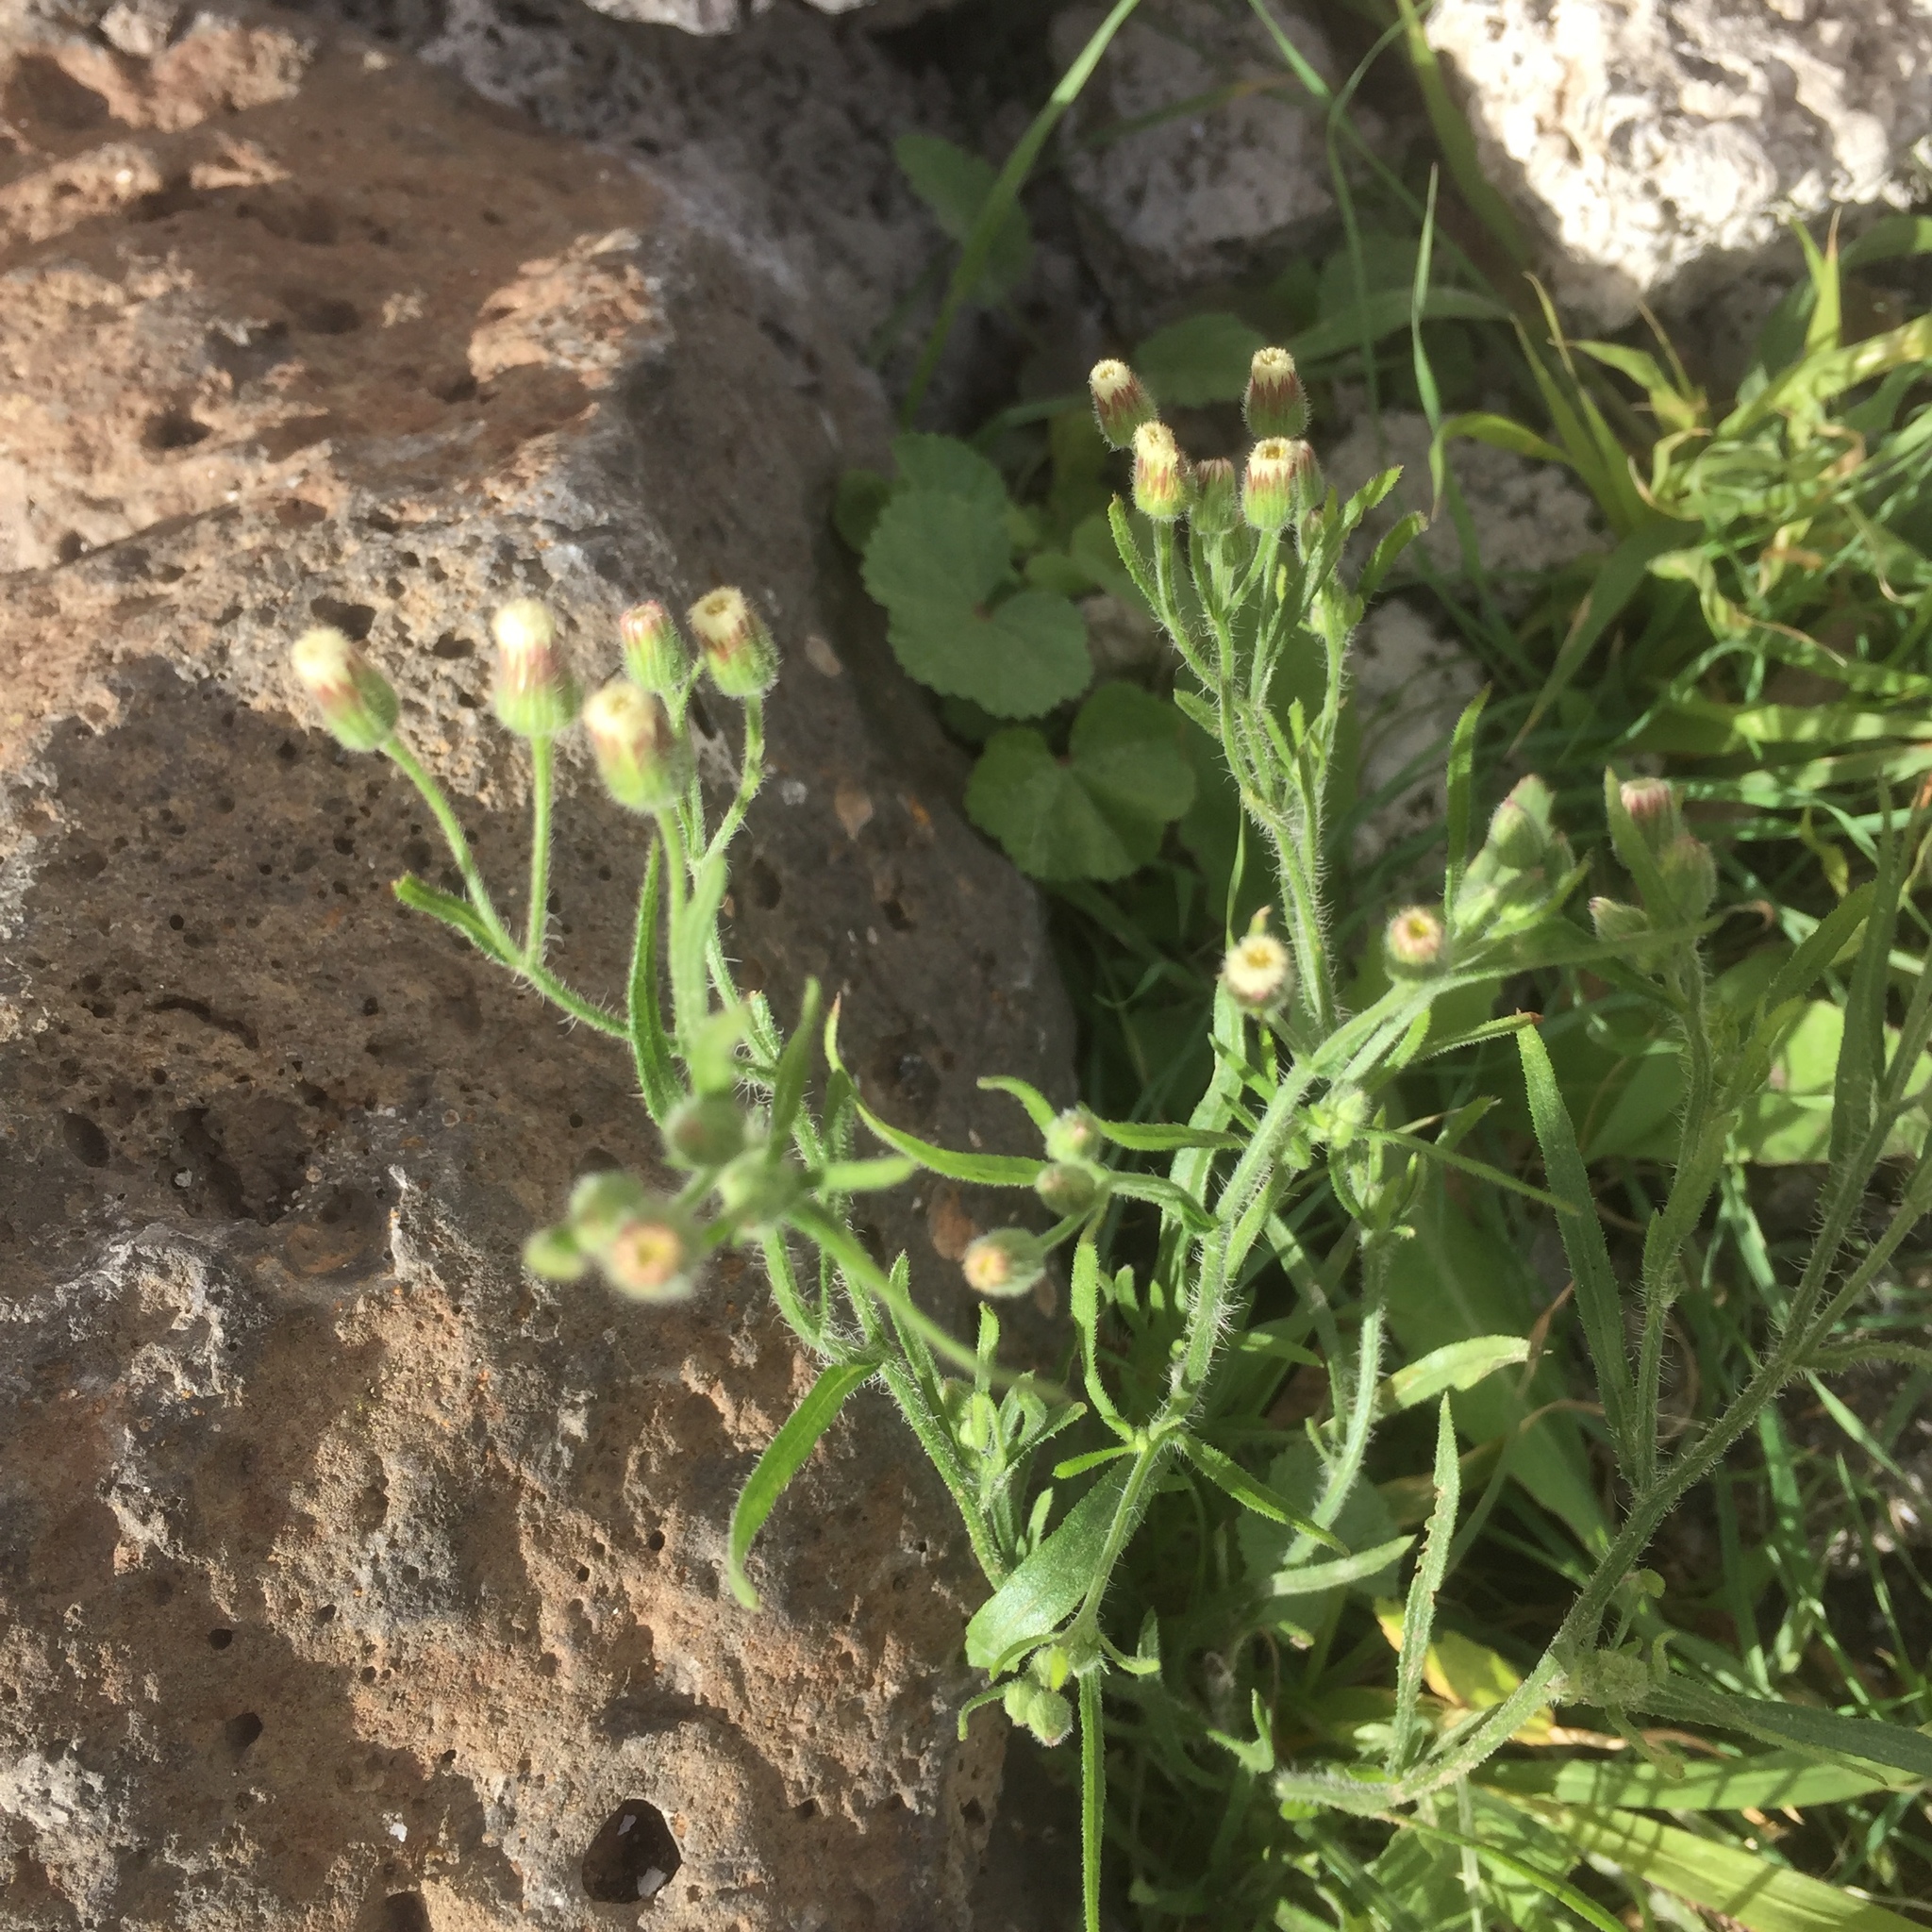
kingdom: Plantae
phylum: Tracheophyta
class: Magnoliopsida
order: Asterales
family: Asteraceae
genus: Erigeron
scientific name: Erigeron bonariensis
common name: Argentine fleabane
